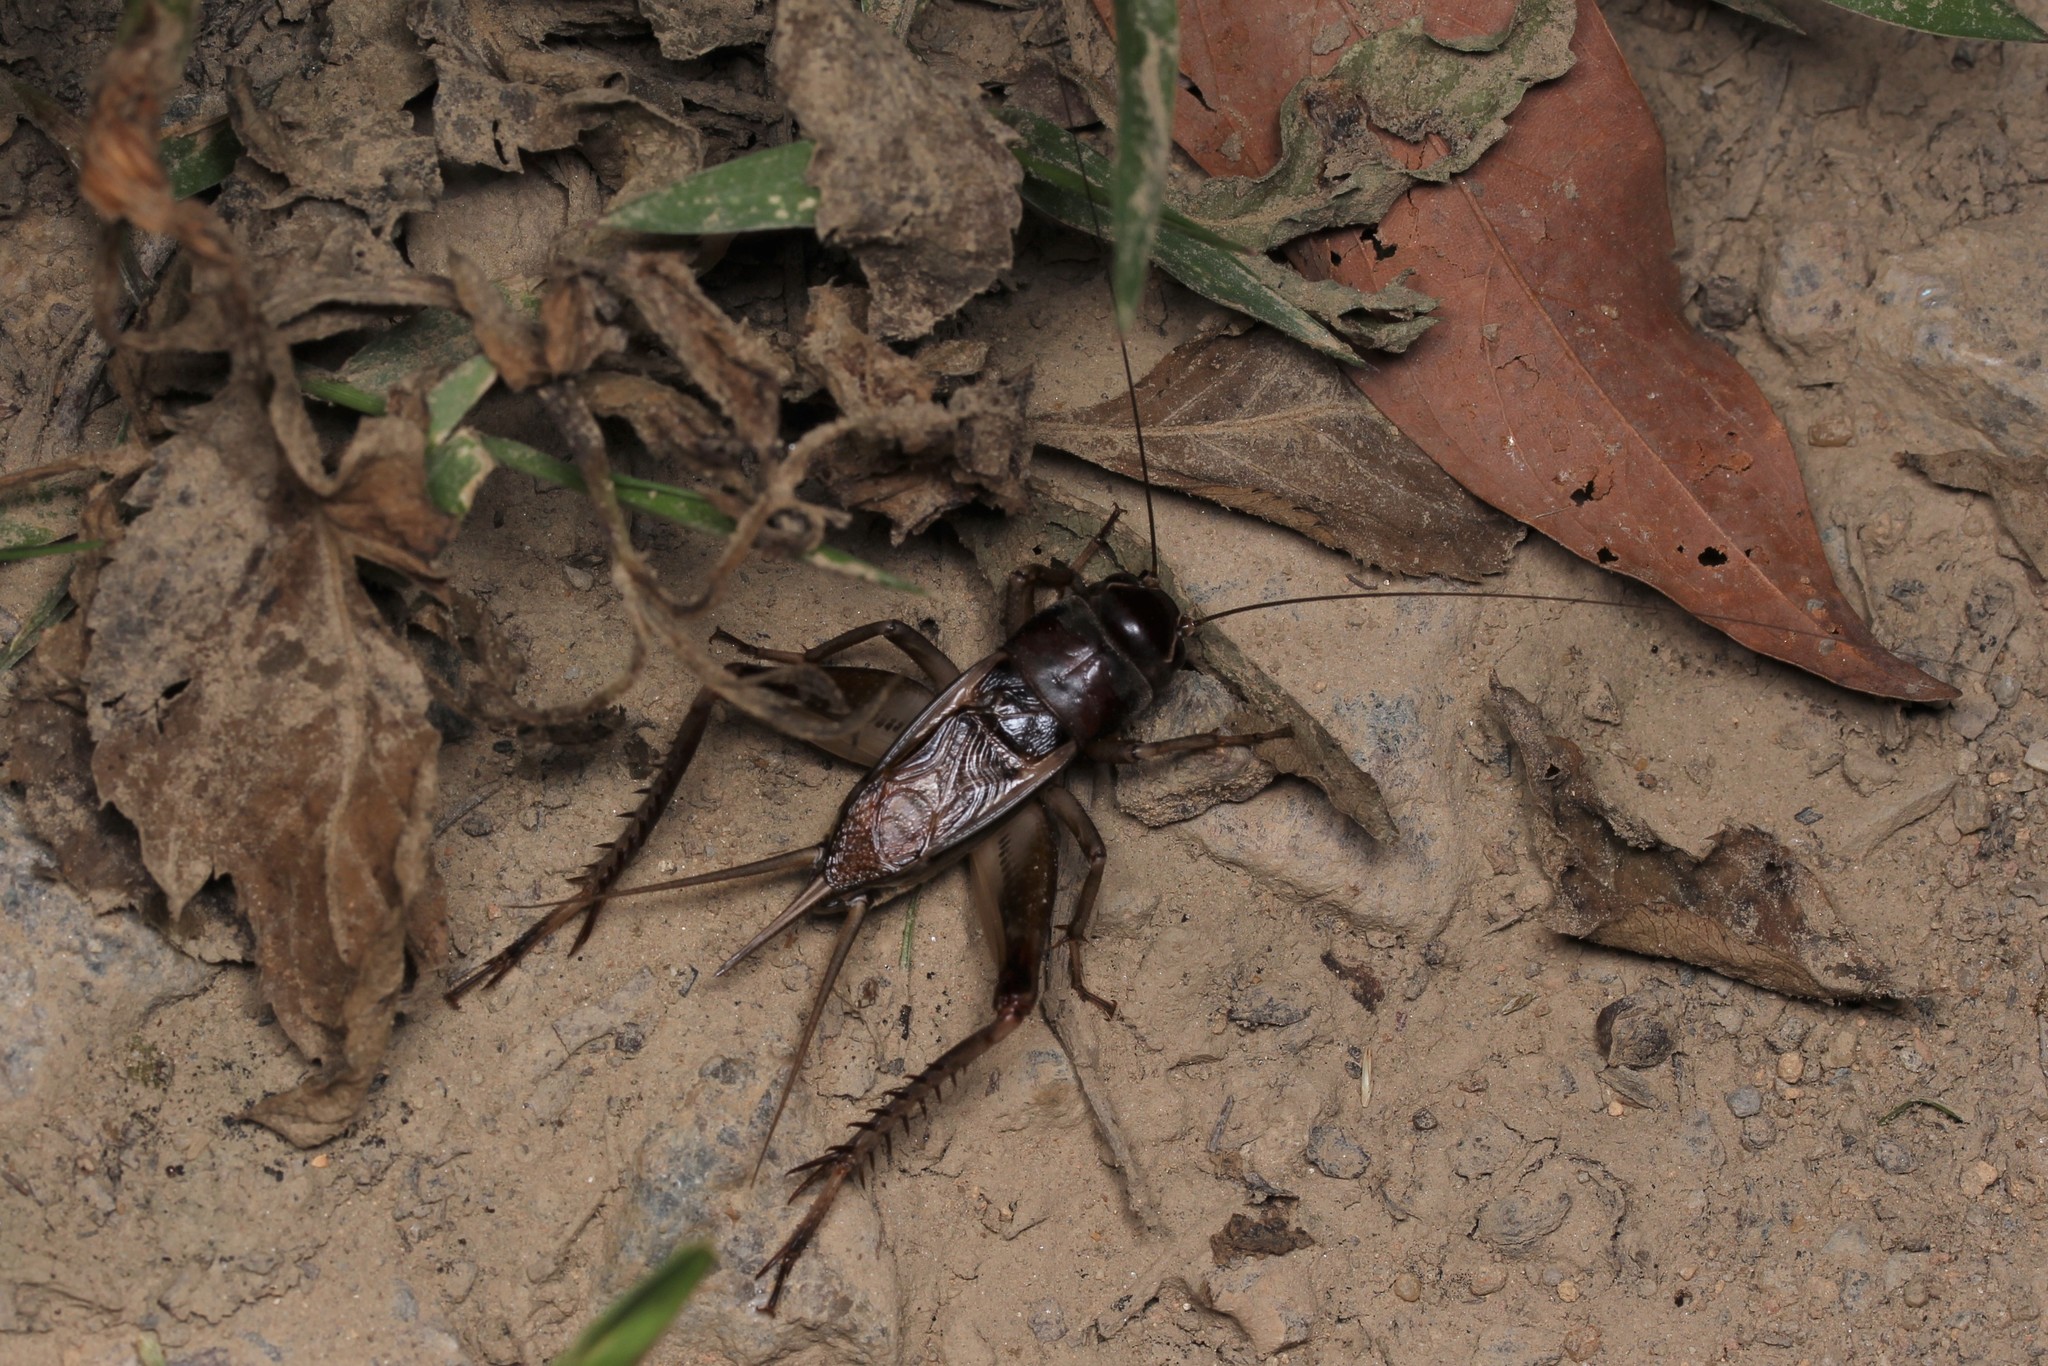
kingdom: Animalia
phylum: Arthropoda
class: Insecta
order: Orthoptera
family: Gryllidae
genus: Teleogryllus
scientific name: Teleogryllus mitratus
